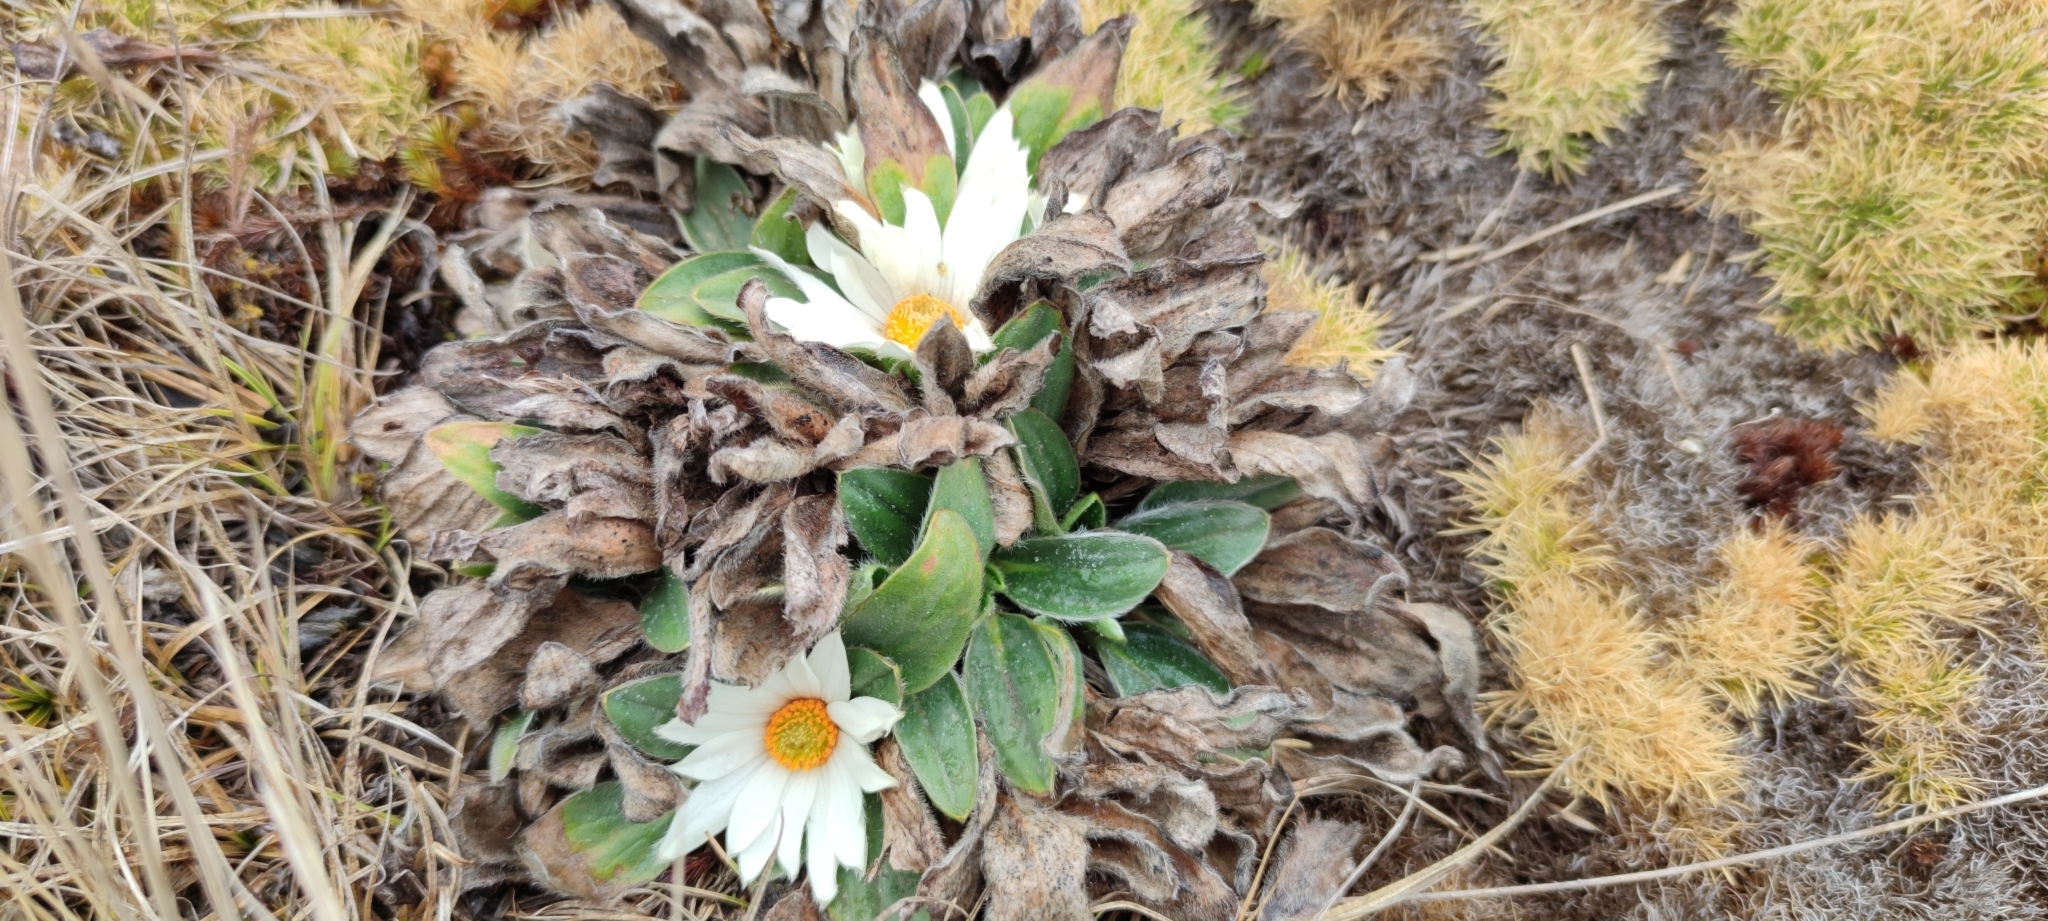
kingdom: Plantae
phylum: Tracheophyta
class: Magnoliopsida
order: Ranunculales
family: Ranunculaceae
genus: Knowltonia
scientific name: Knowltonia integrifolia
